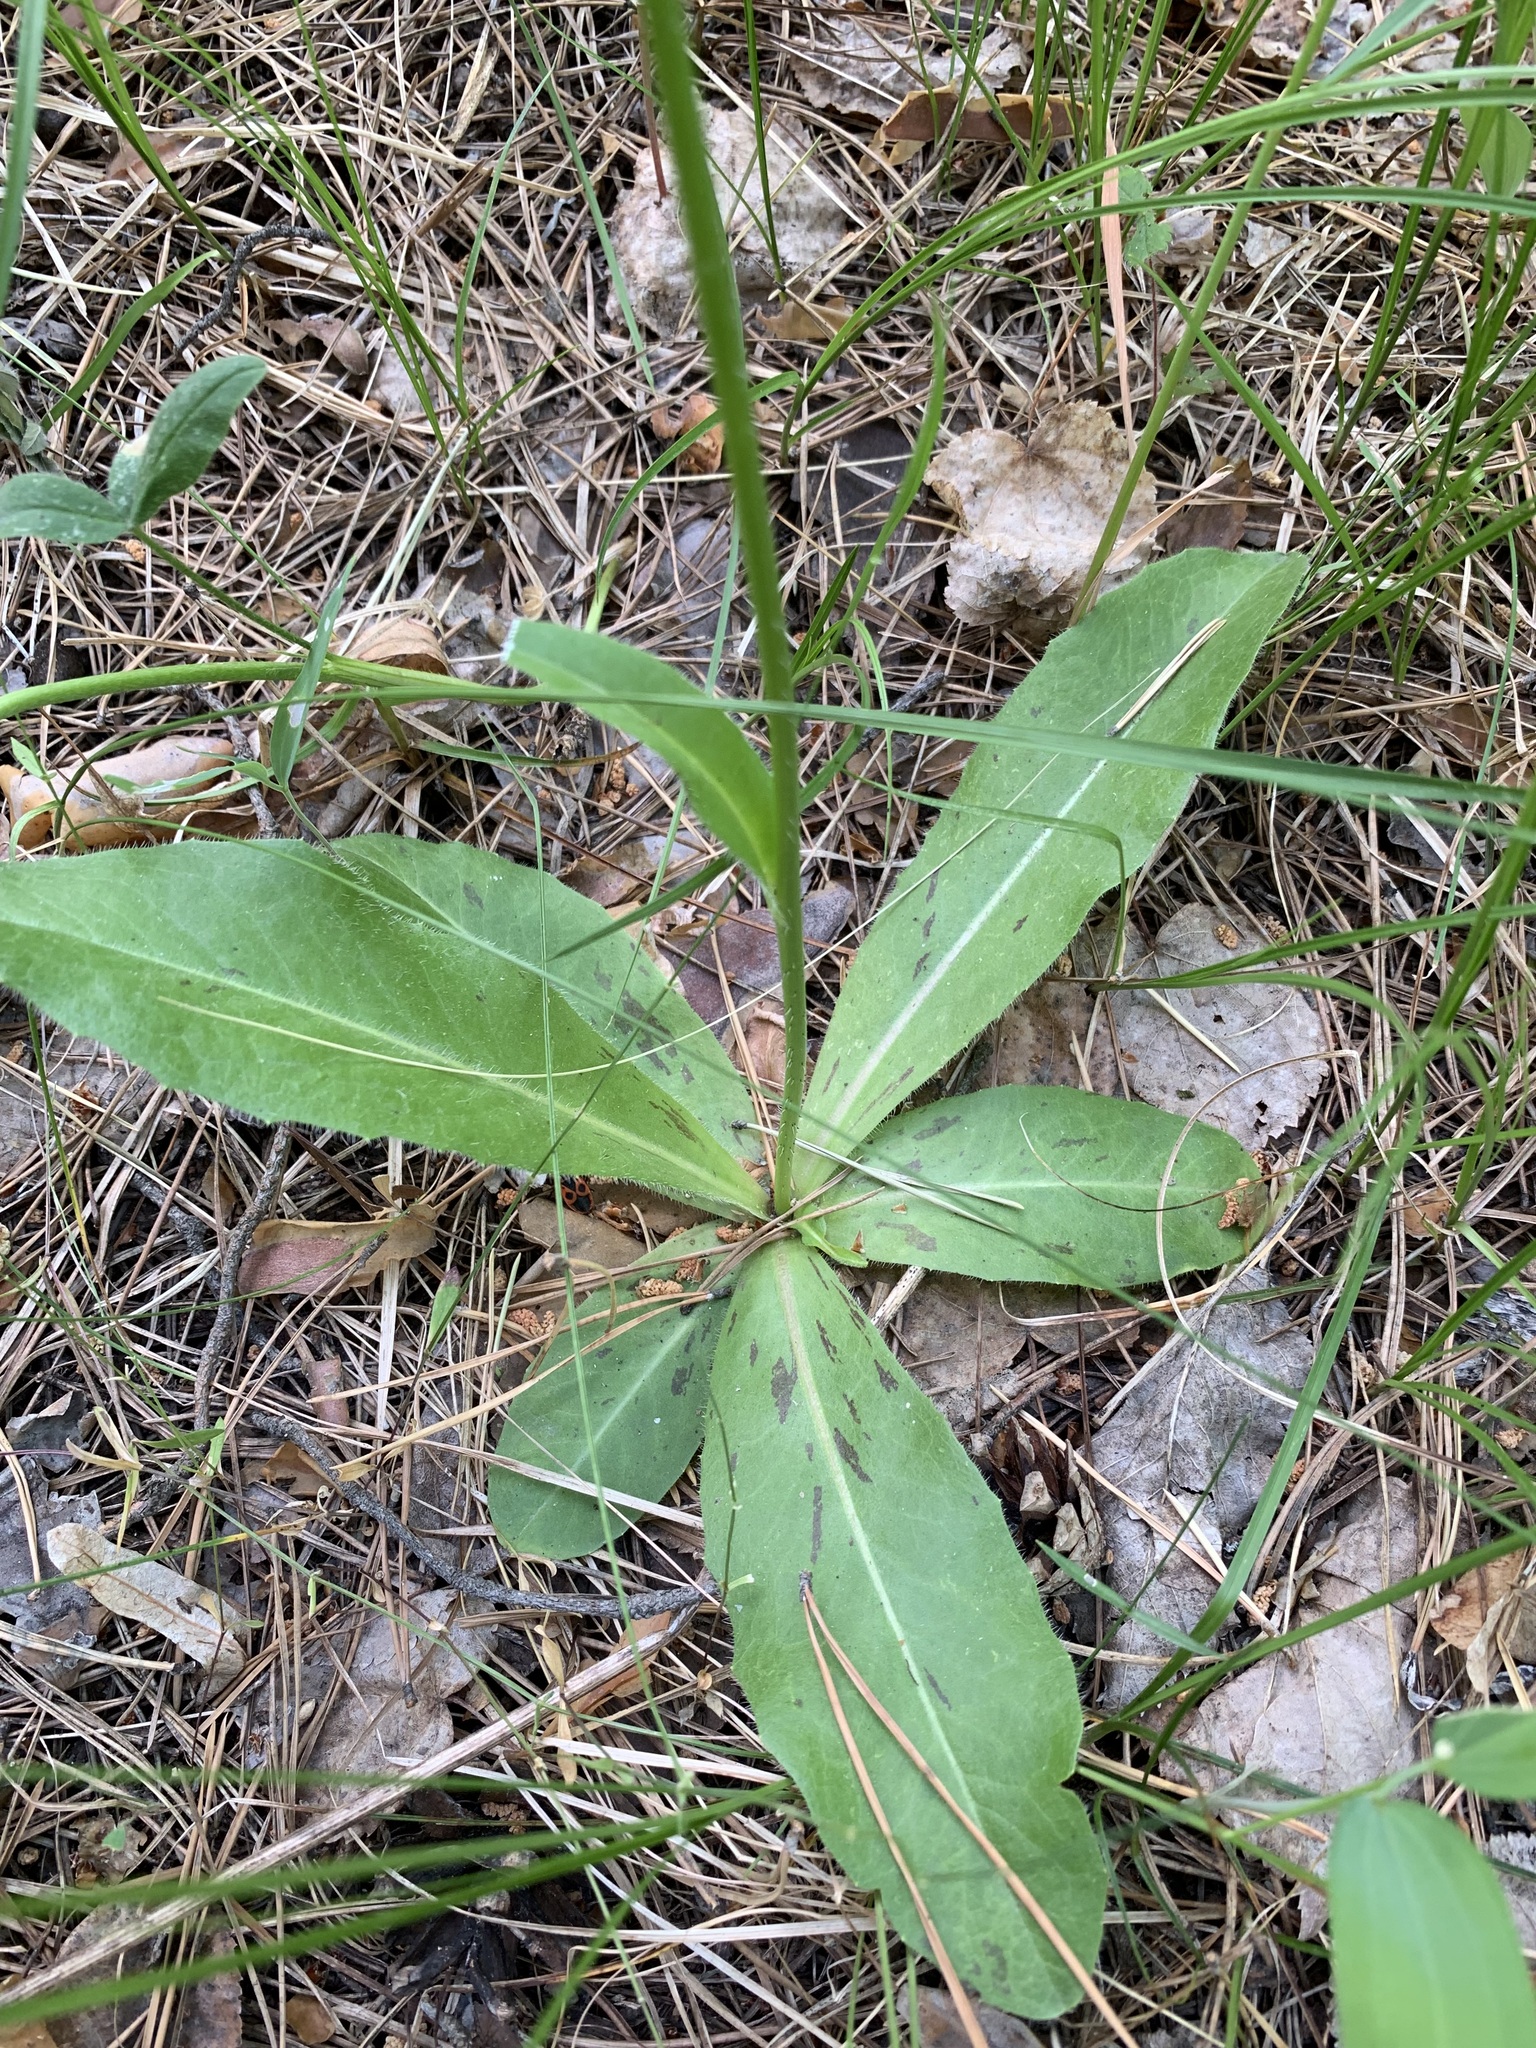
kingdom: Plantae
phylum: Tracheophyta
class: Magnoliopsida
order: Asterales
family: Asteraceae
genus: Trommsdorffia
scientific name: Trommsdorffia maculata
